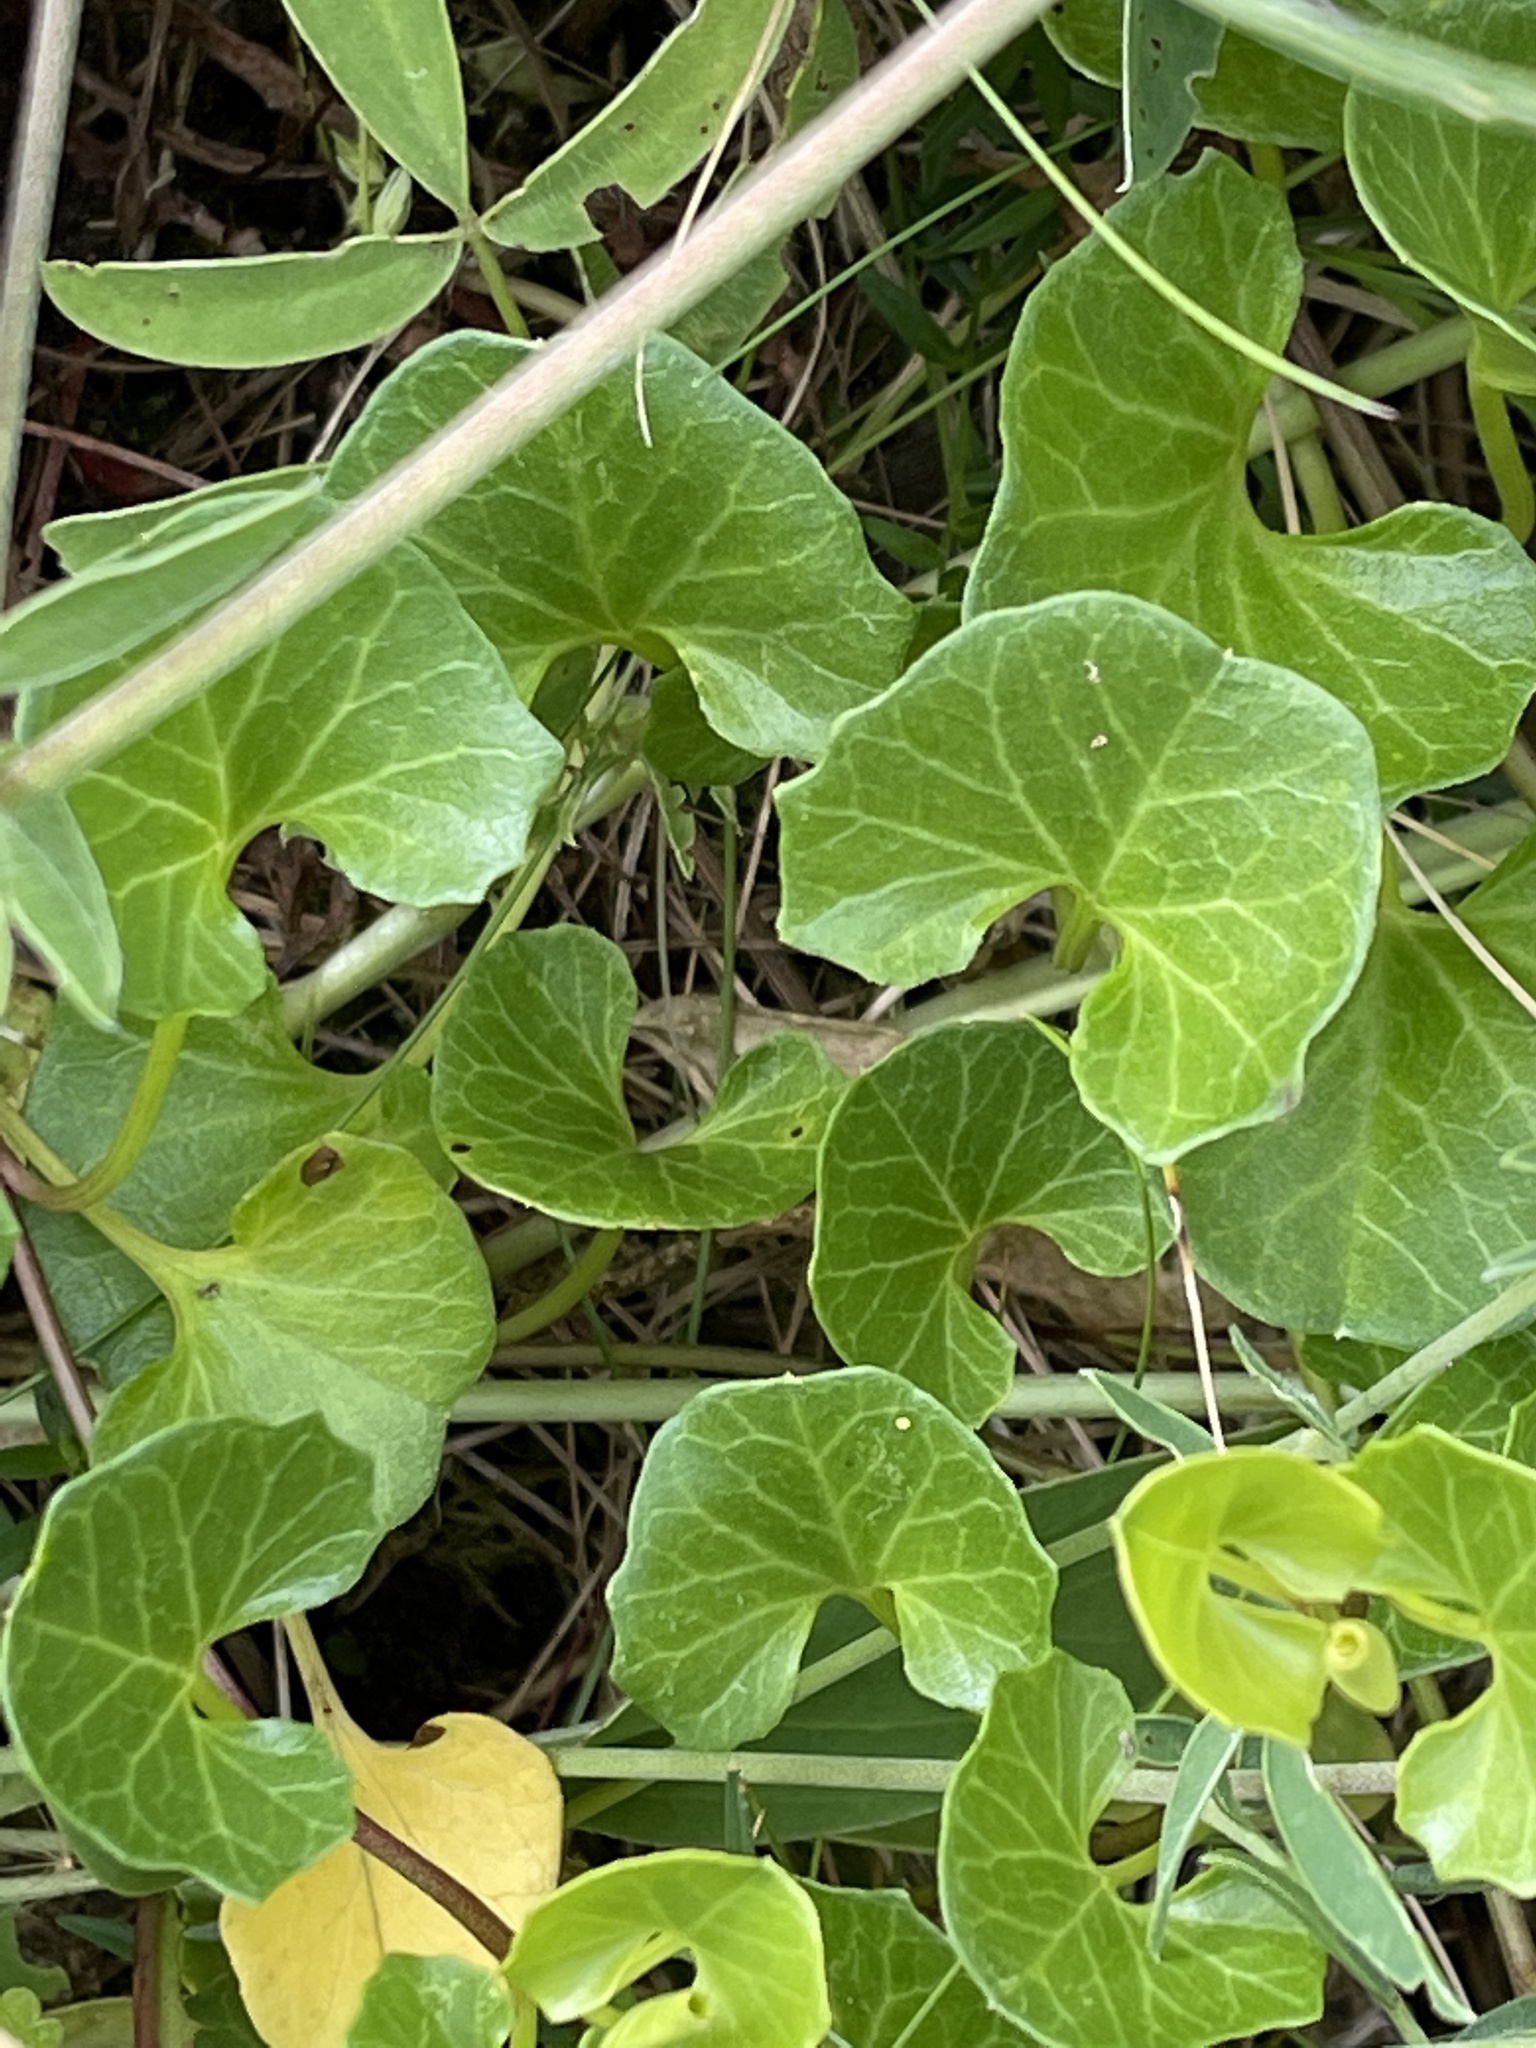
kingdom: Plantae
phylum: Tracheophyta
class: Magnoliopsida
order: Solanales
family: Convolvulaceae
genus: Calystegia
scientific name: Calystegia soldanella
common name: Sea bindweed
